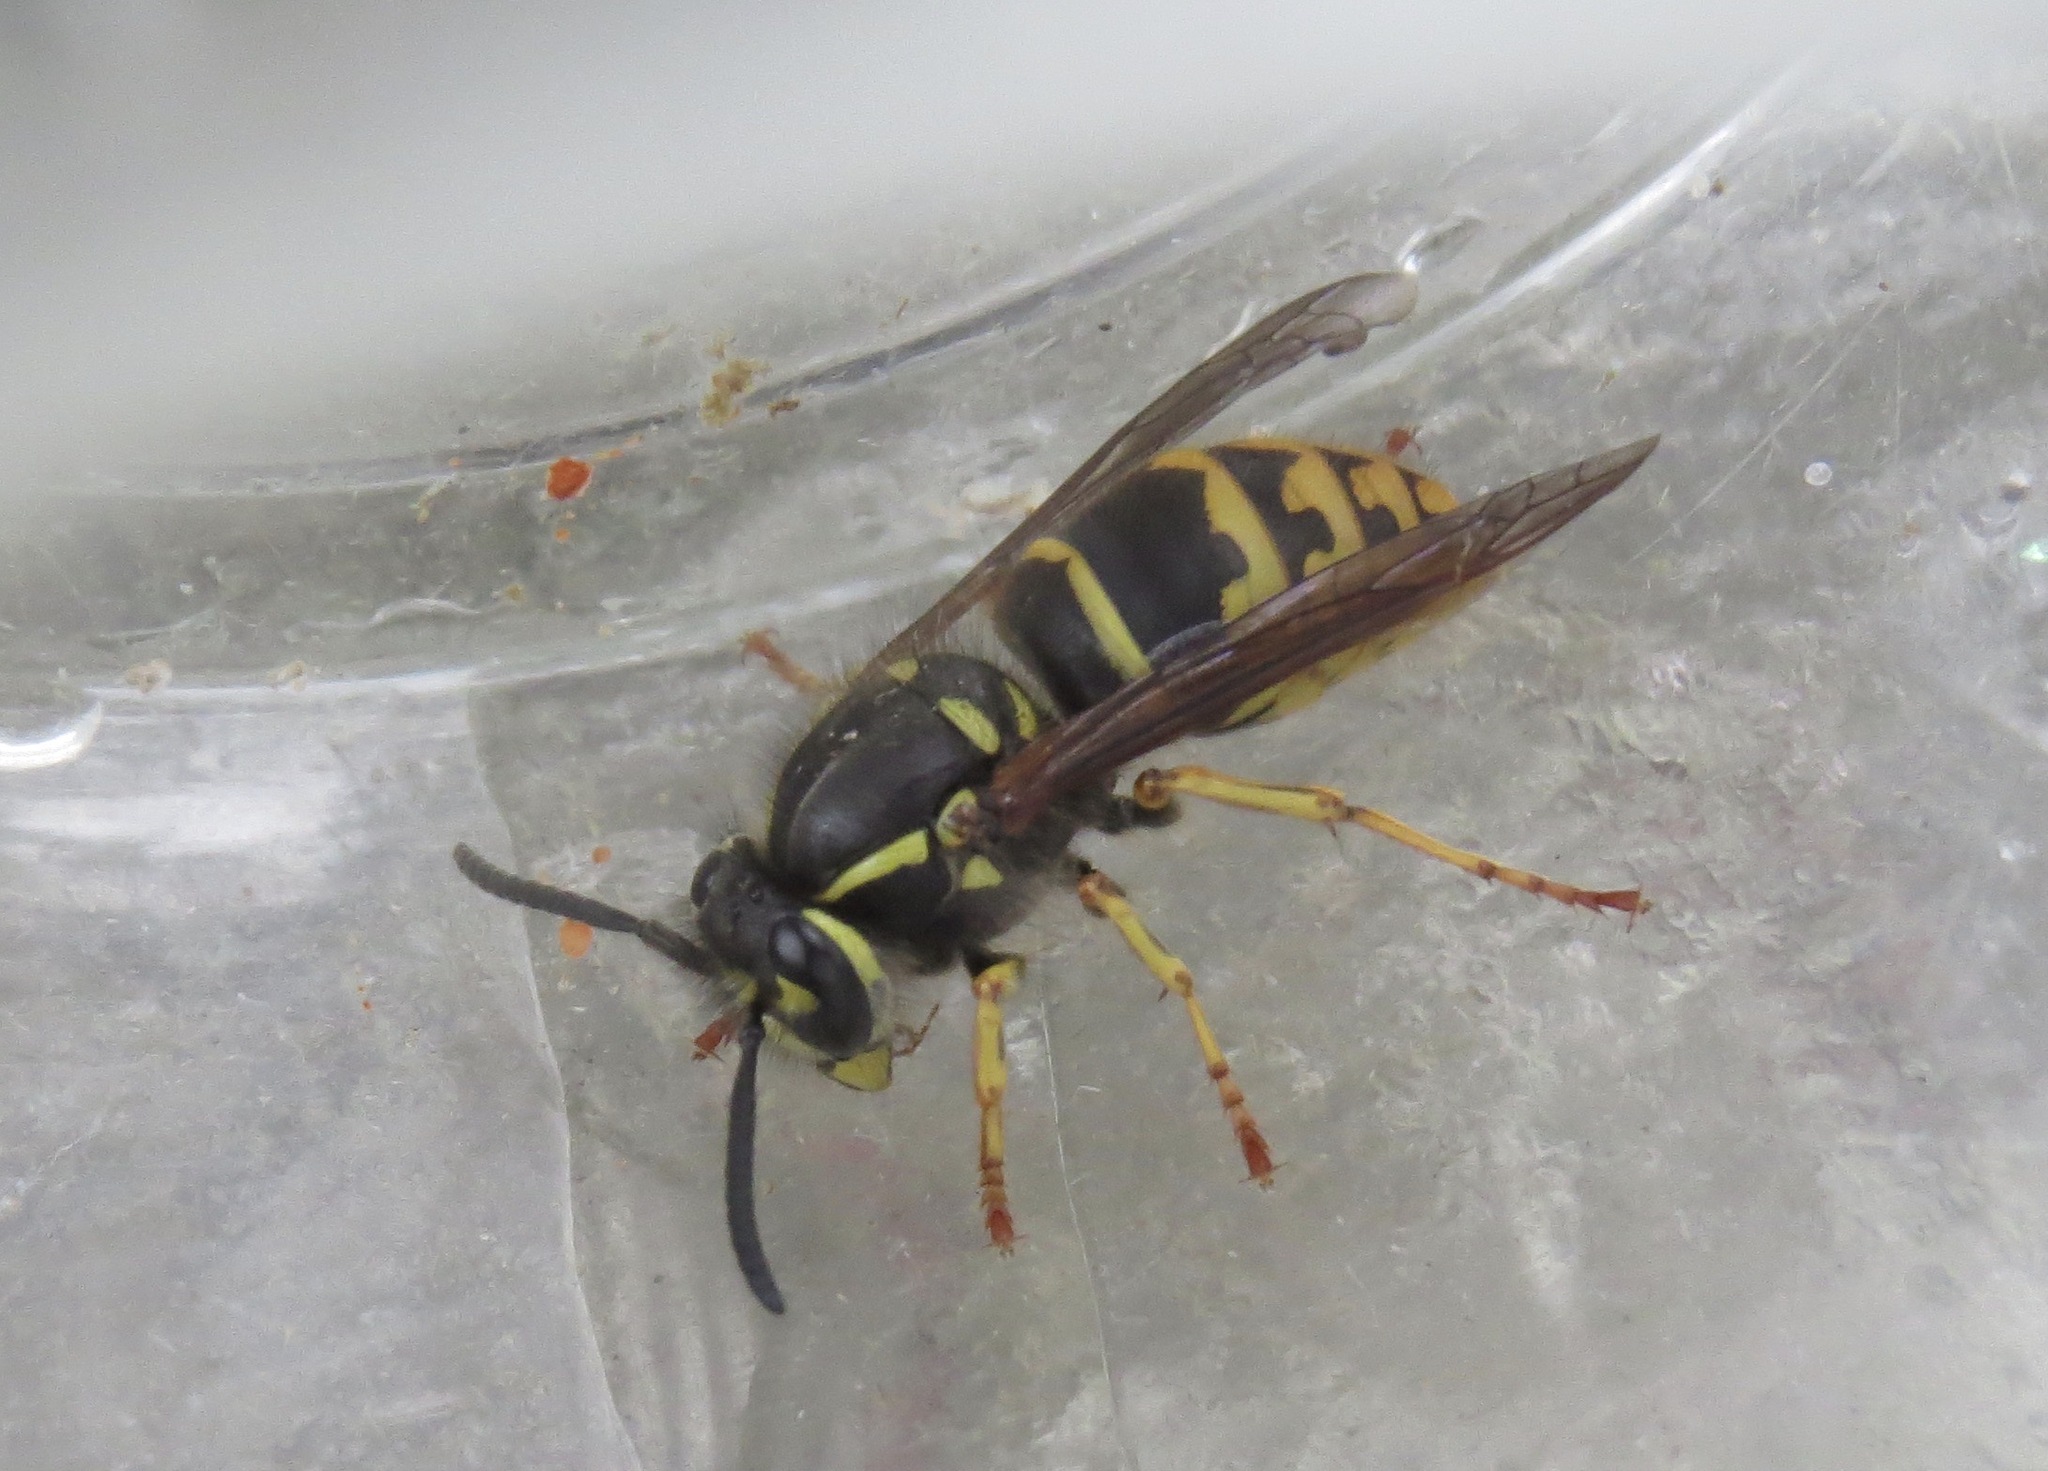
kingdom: Animalia
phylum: Arthropoda
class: Insecta
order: Hymenoptera
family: Vespidae
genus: Vespula
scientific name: Vespula alascensis
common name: Alaska yellowjacket
